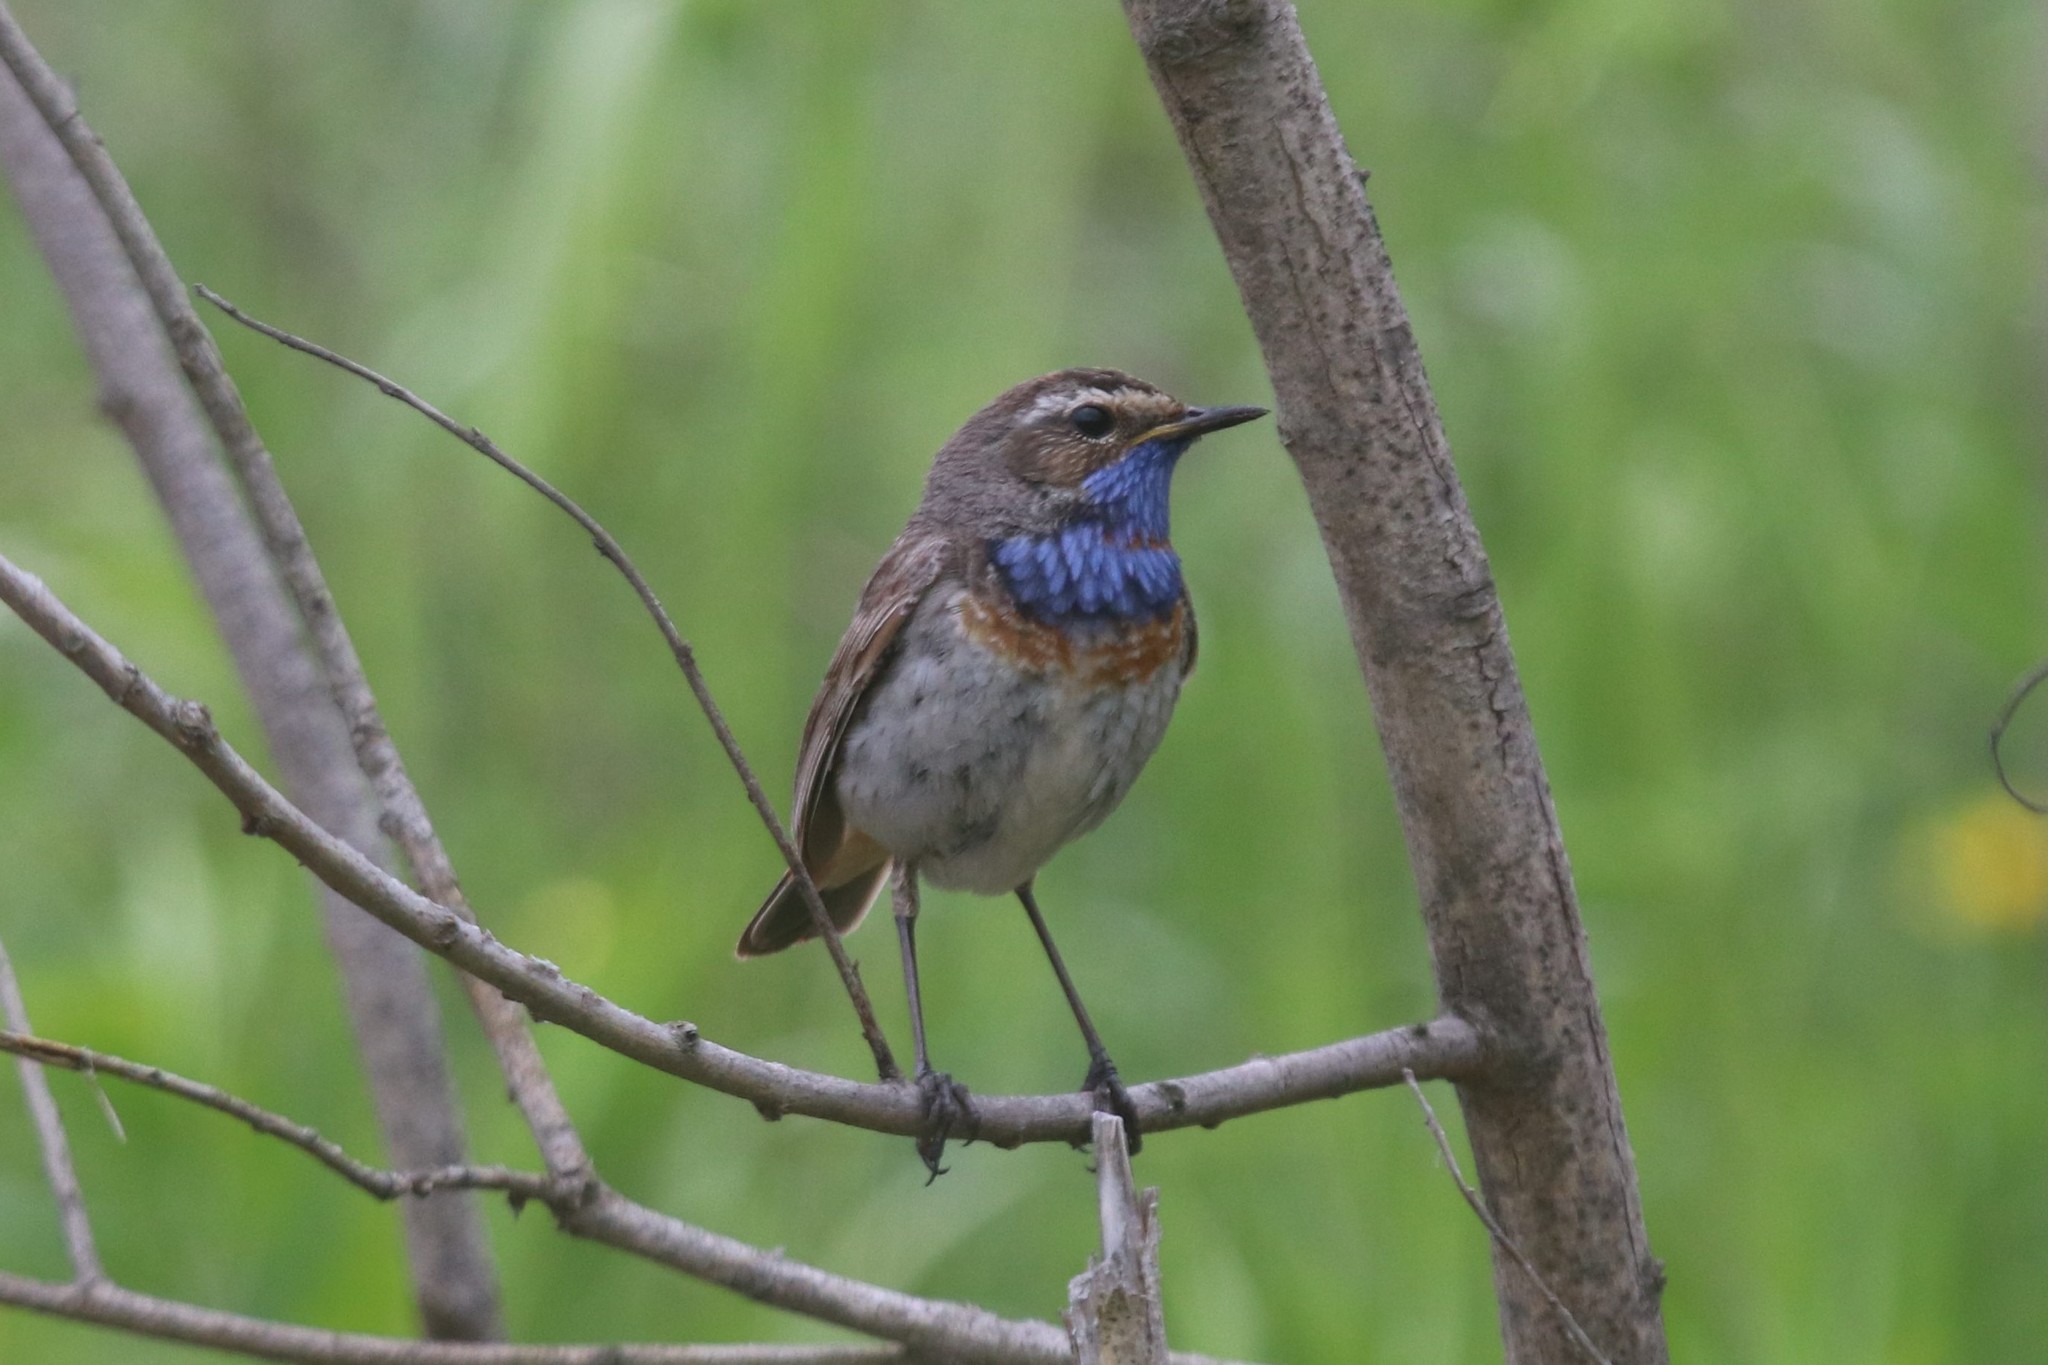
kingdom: Animalia
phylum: Chordata
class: Aves
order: Passeriformes
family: Muscicapidae
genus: Luscinia
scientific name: Luscinia svecica
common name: Bluethroat
